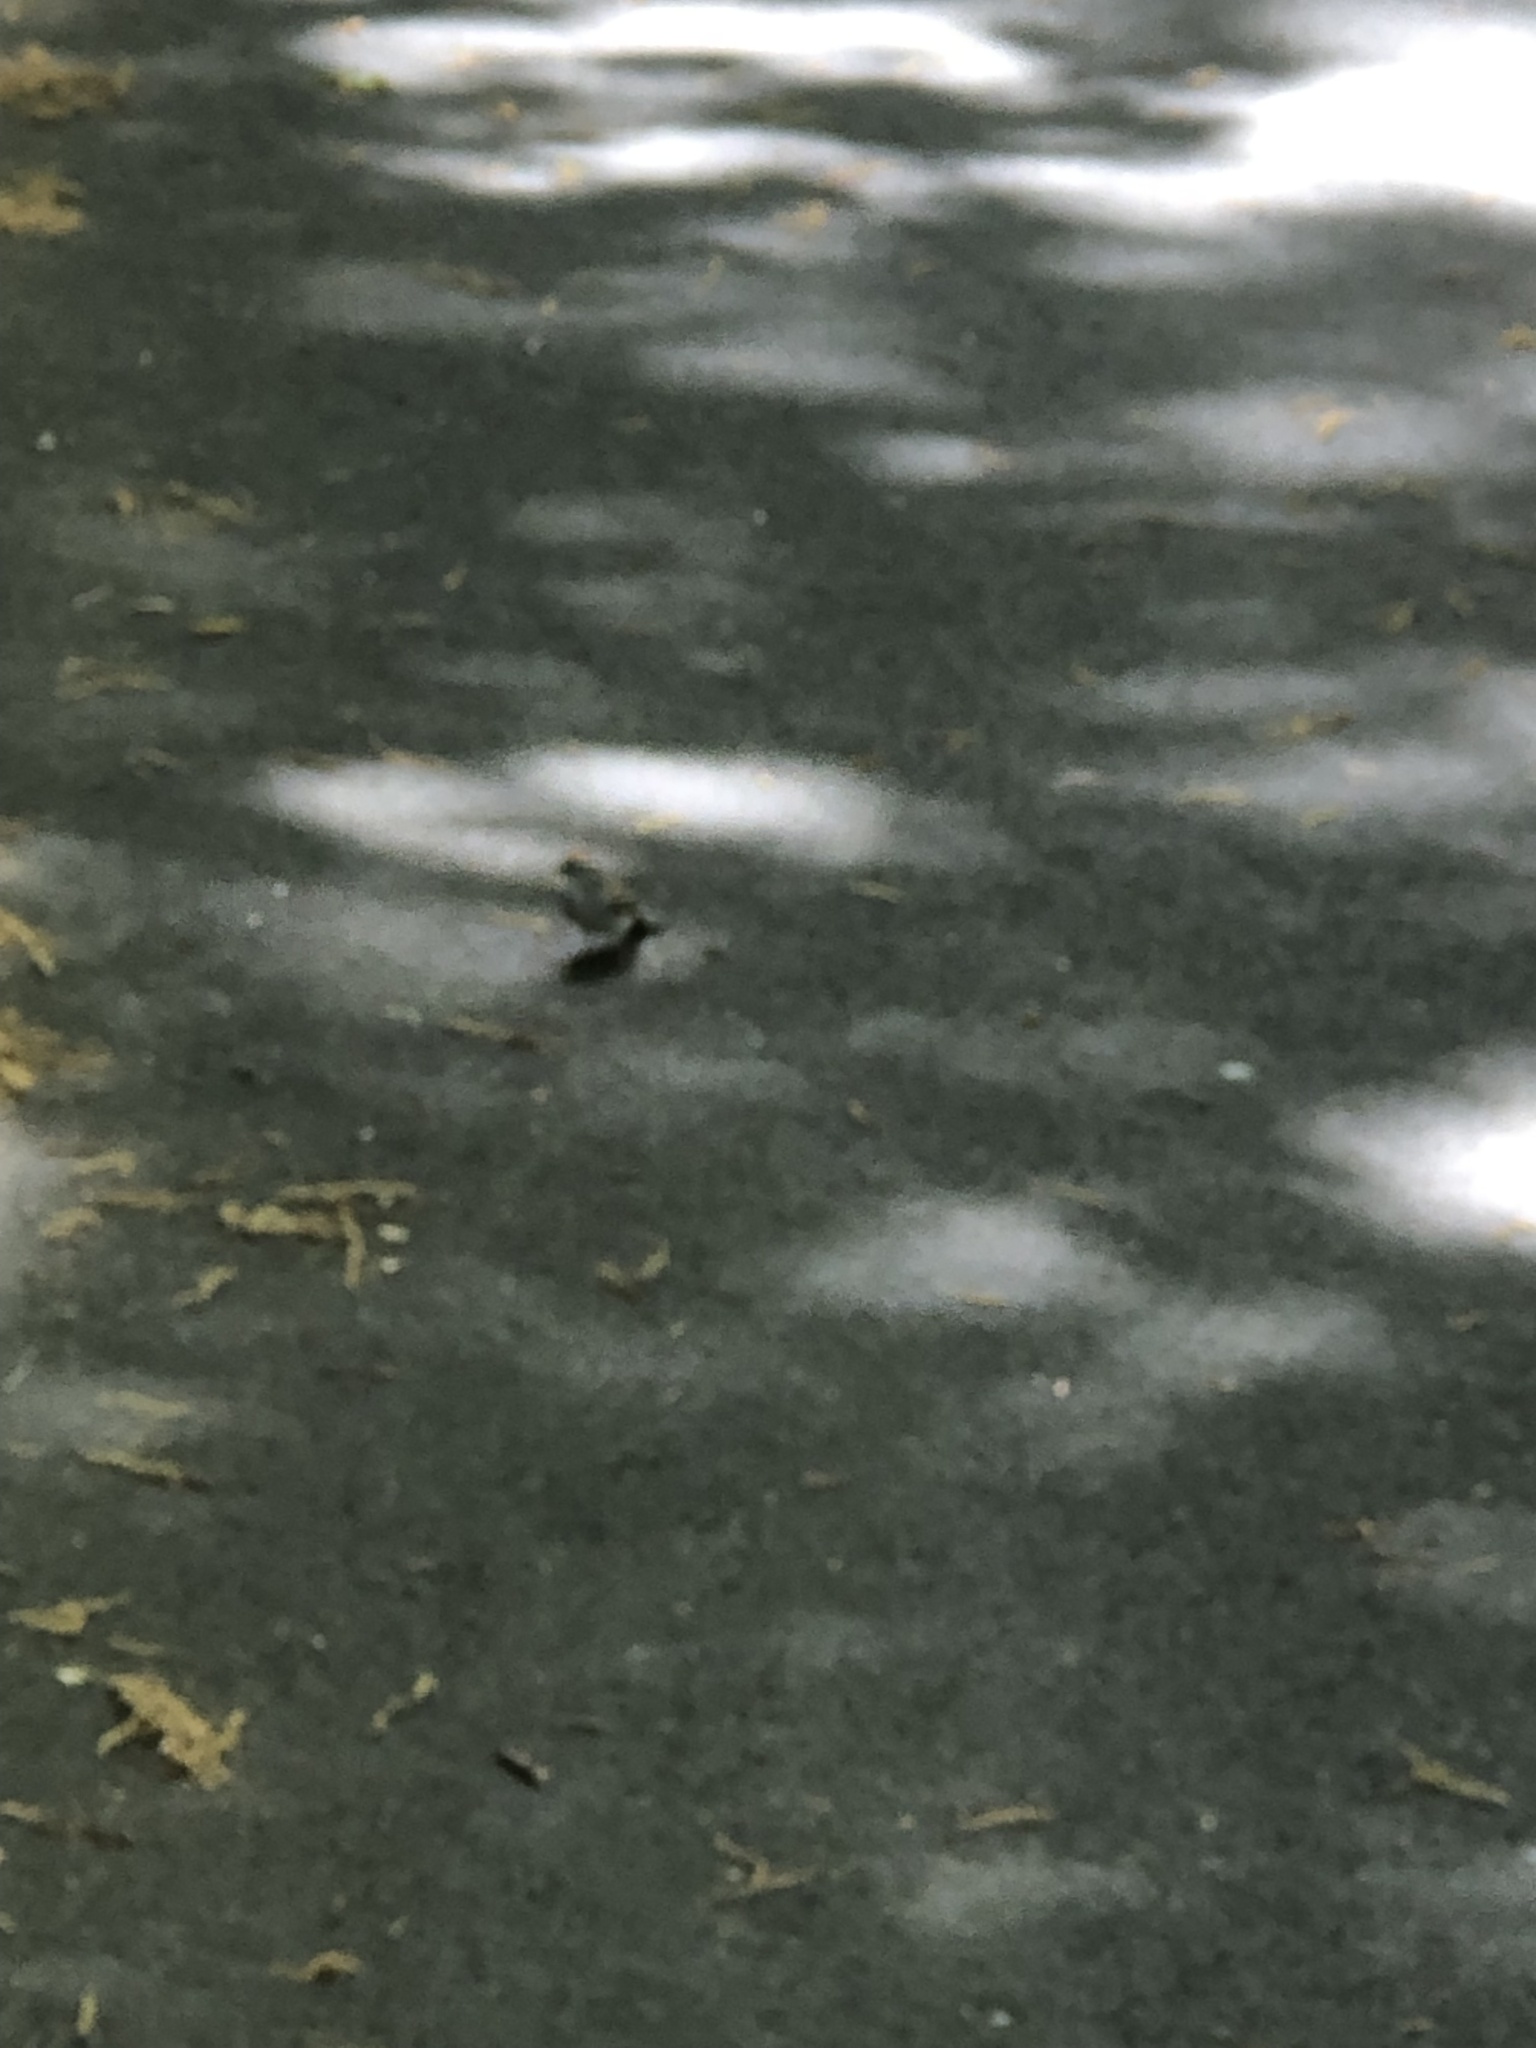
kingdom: Animalia
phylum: Chordata
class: Aves
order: Passeriformes
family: Passerellidae
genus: Spizella
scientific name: Spizella passerina
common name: Chipping sparrow
